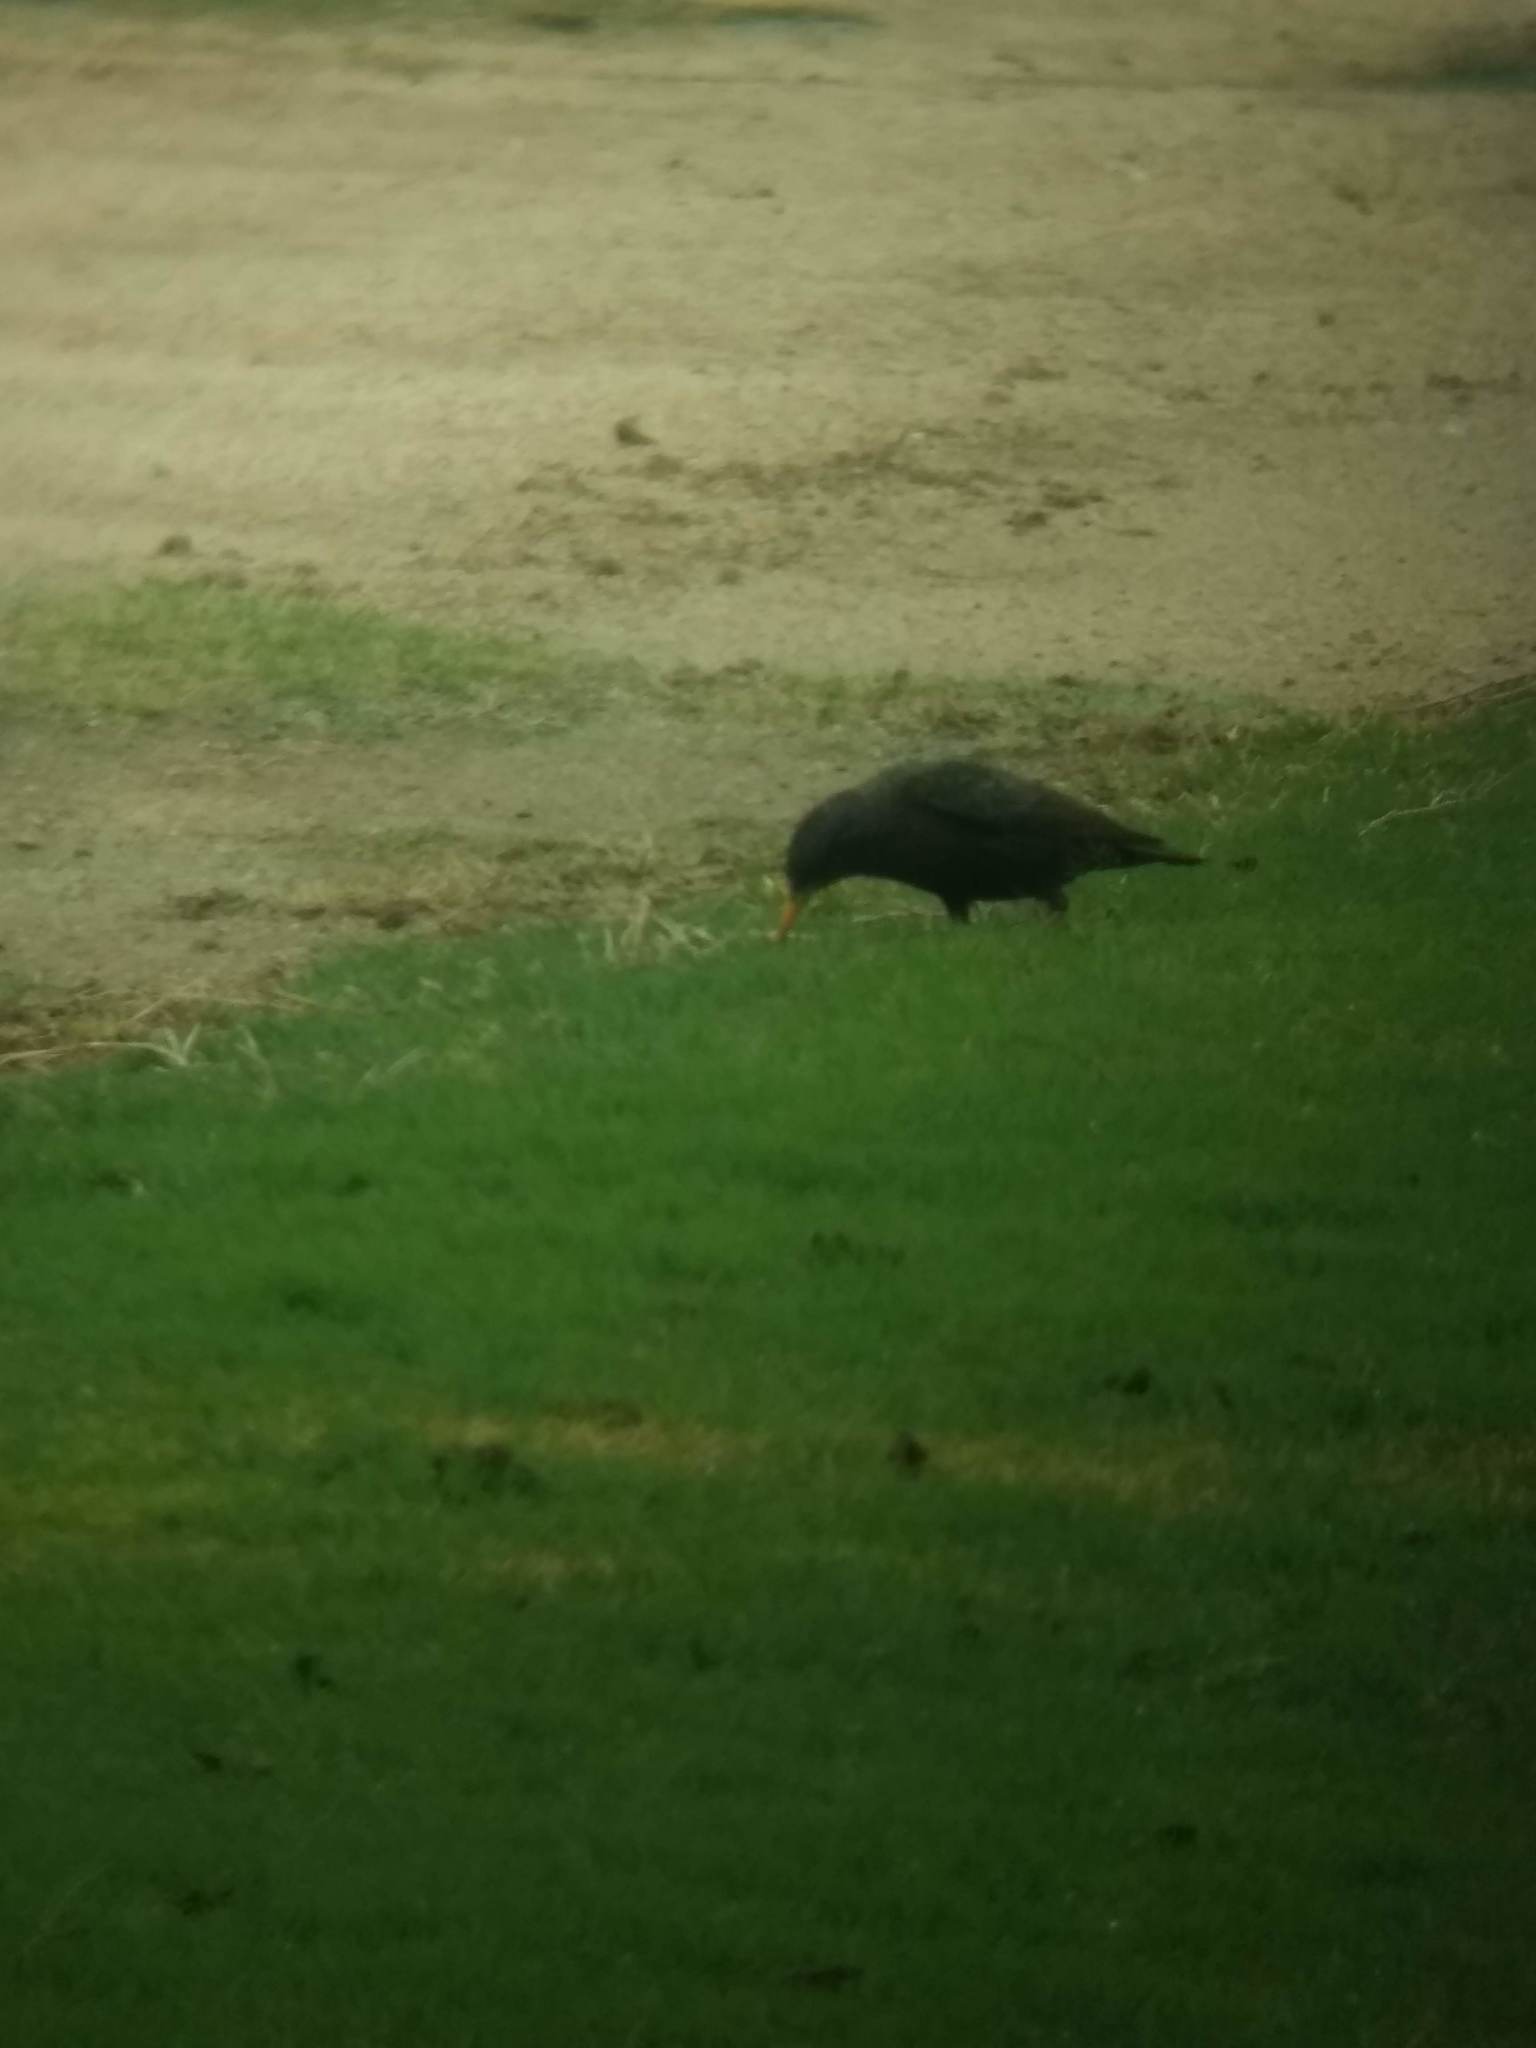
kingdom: Animalia
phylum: Chordata
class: Aves
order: Passeriformes
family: Sturnidae
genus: Sturnus
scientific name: Sturnus vulgaris
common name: Common starling
